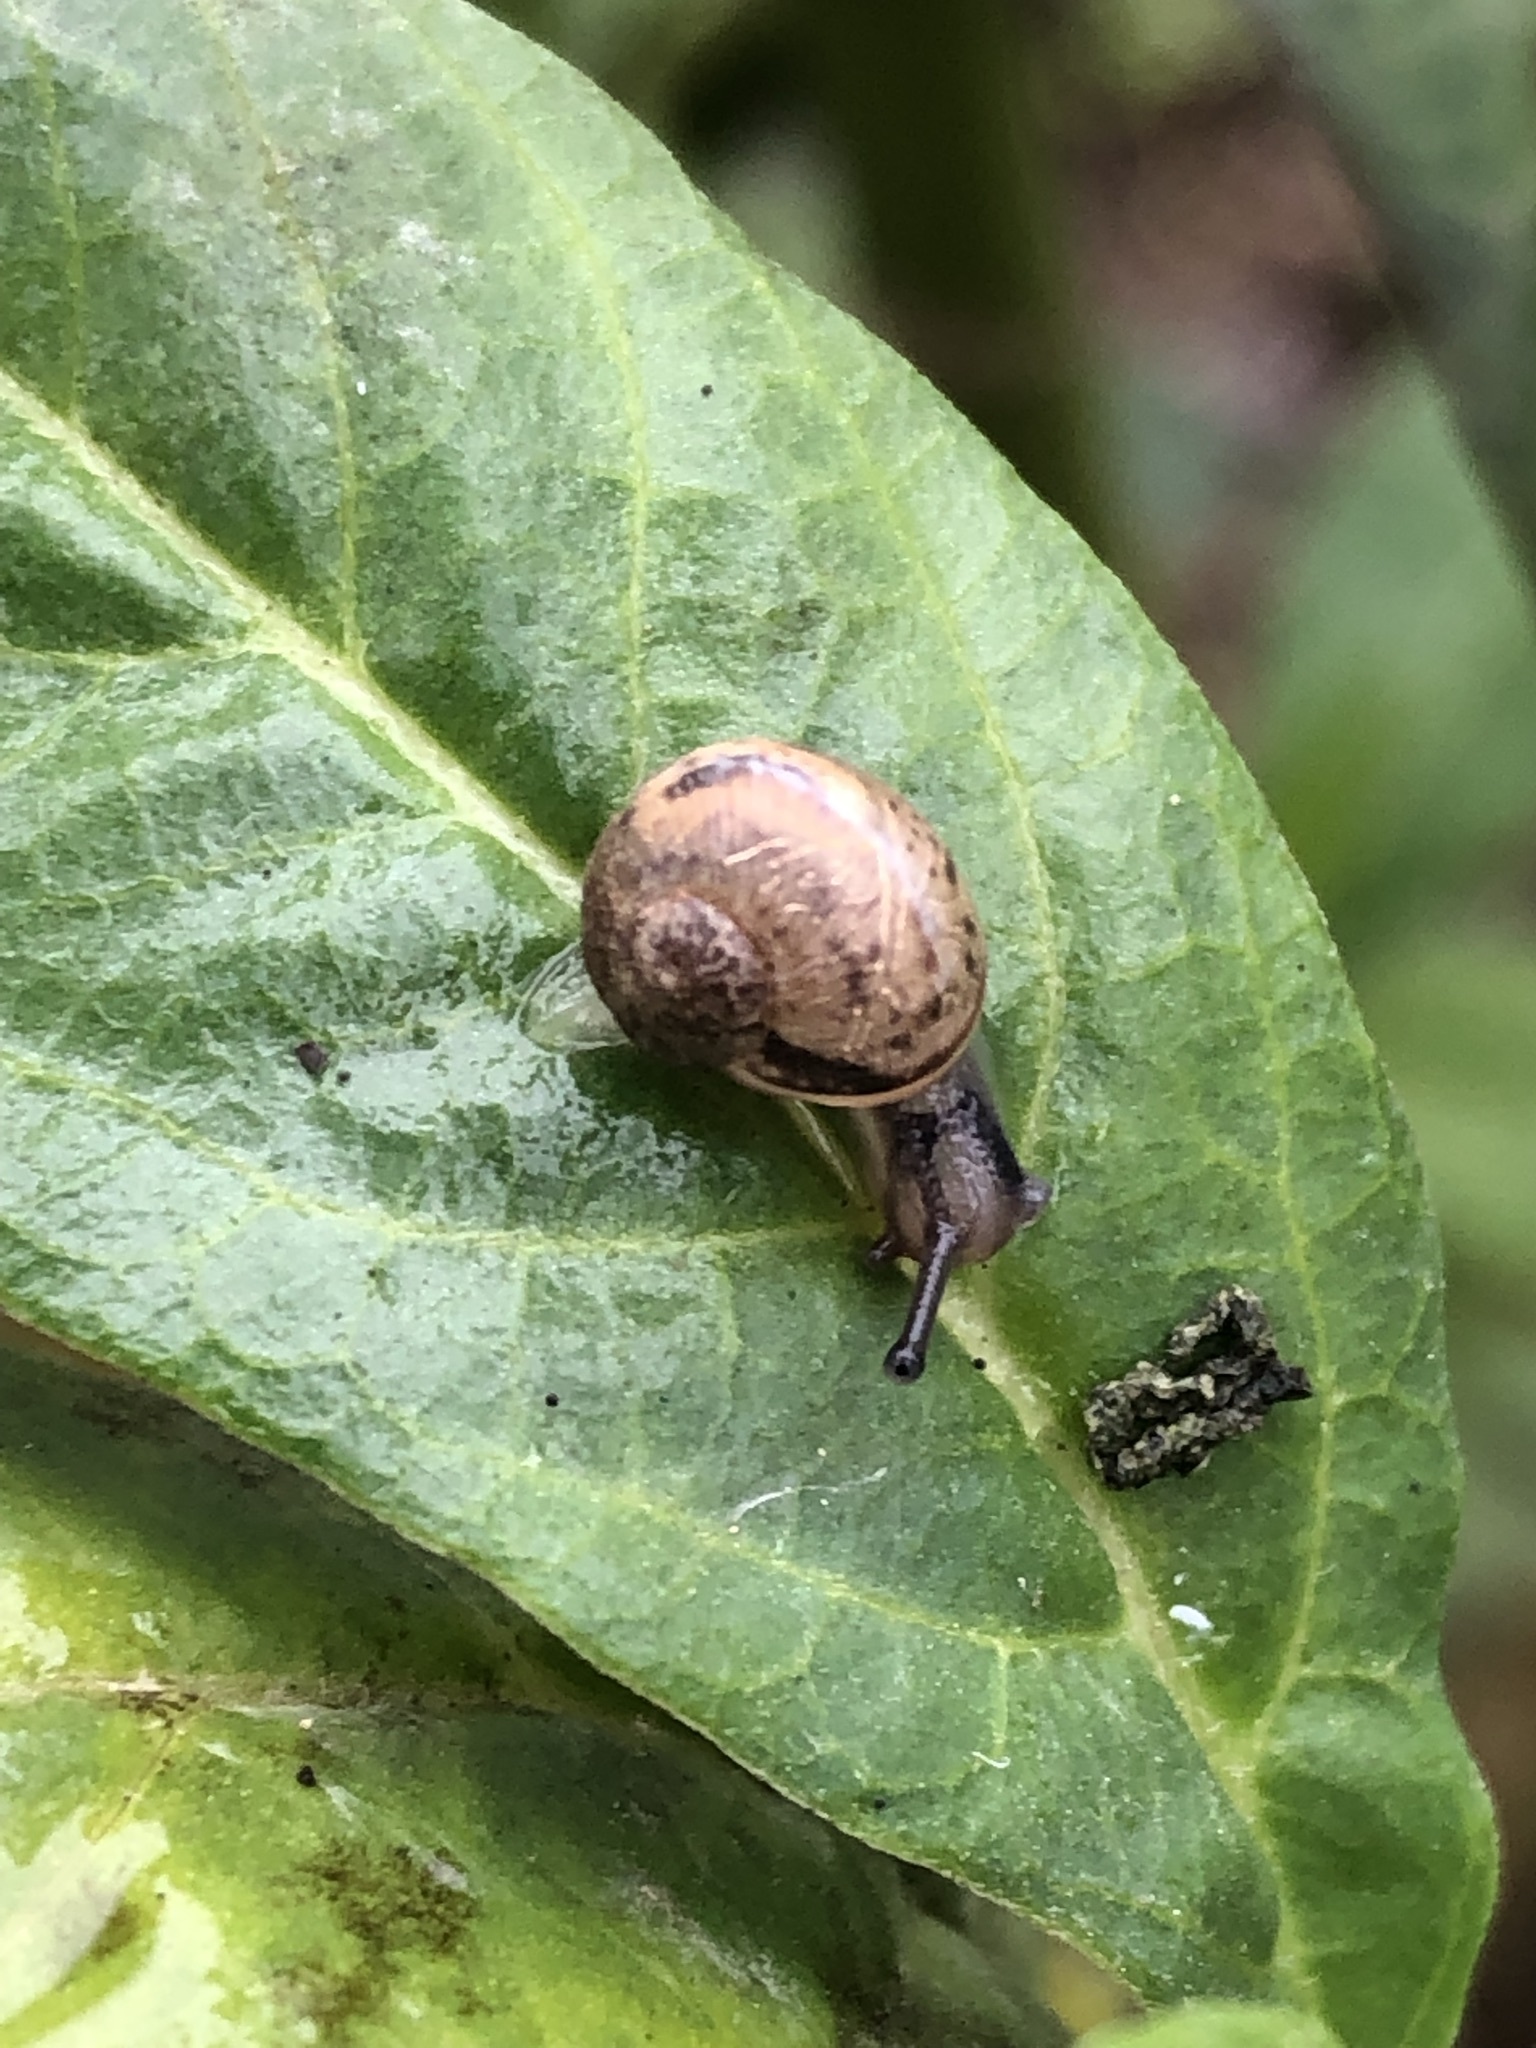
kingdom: Animalia
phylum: Mollusca
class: Gastropoda
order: Stylommatophora
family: Helicidae
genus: Cornu
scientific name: Cornu aspersum
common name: Brown garden snail
